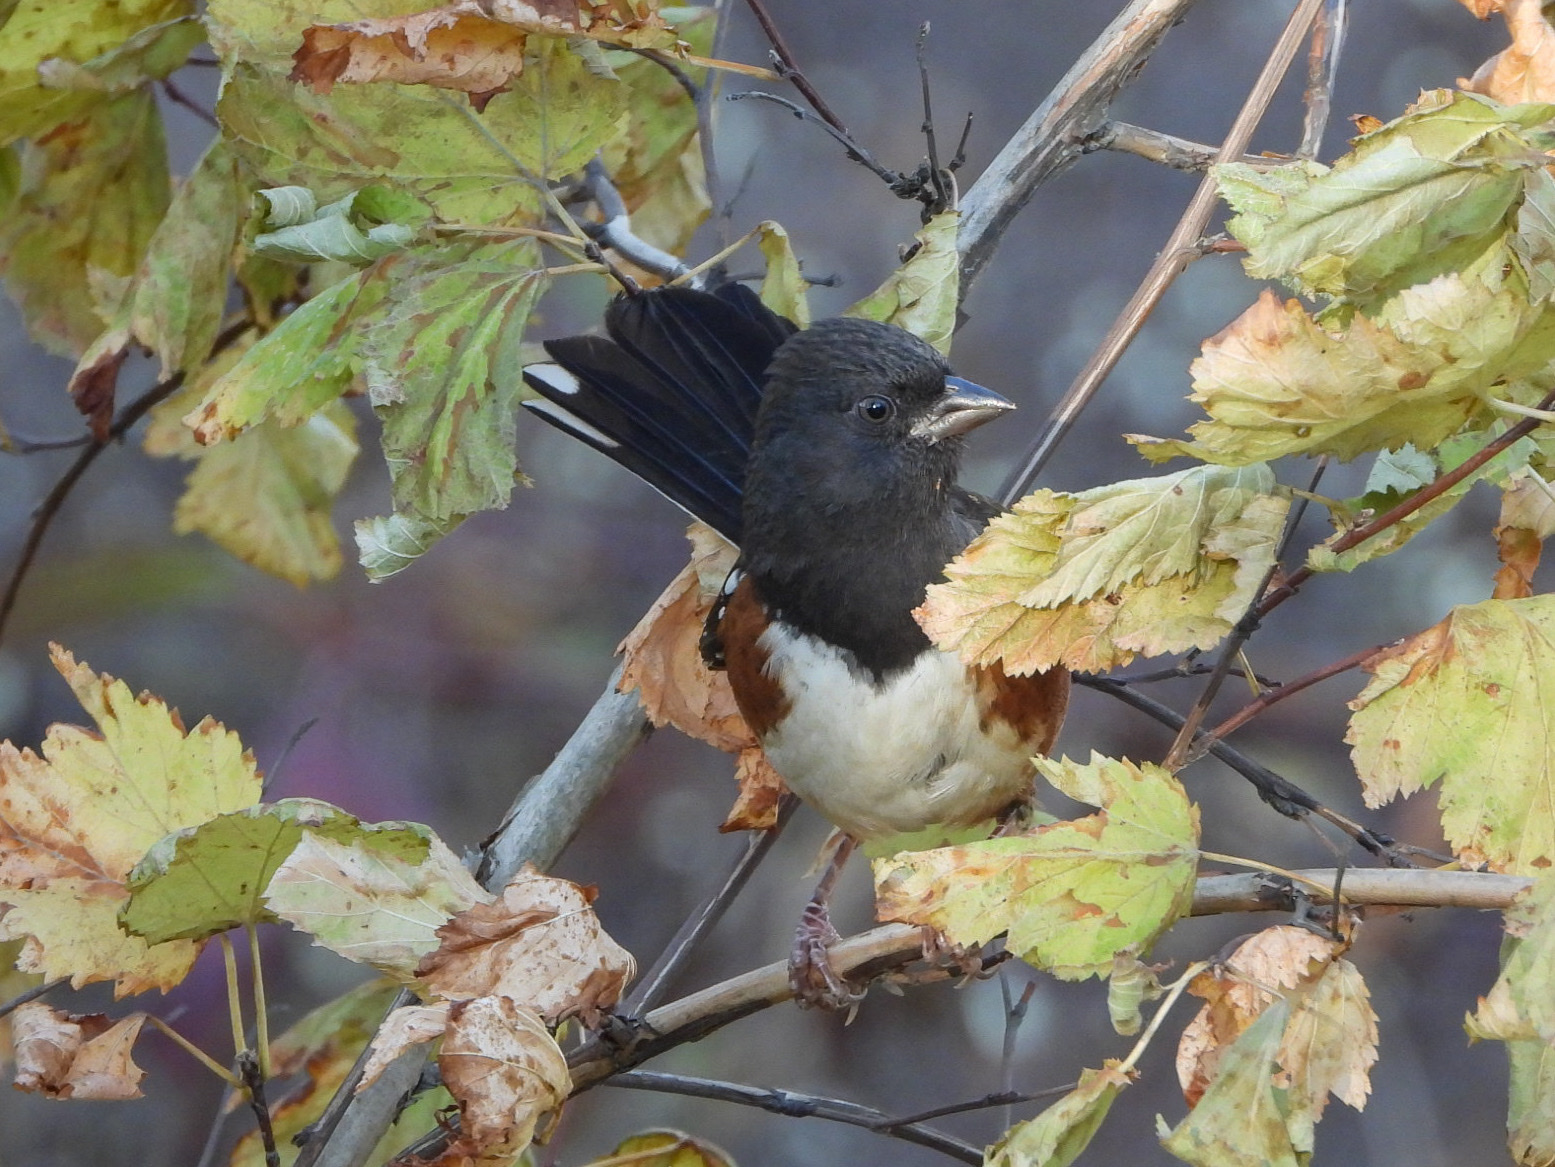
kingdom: Animalia
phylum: Chordata
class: Aves
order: Passeriformes
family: Passerellidae
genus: Pipilo
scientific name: Pipilo maculatus
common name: Spotted towhee
